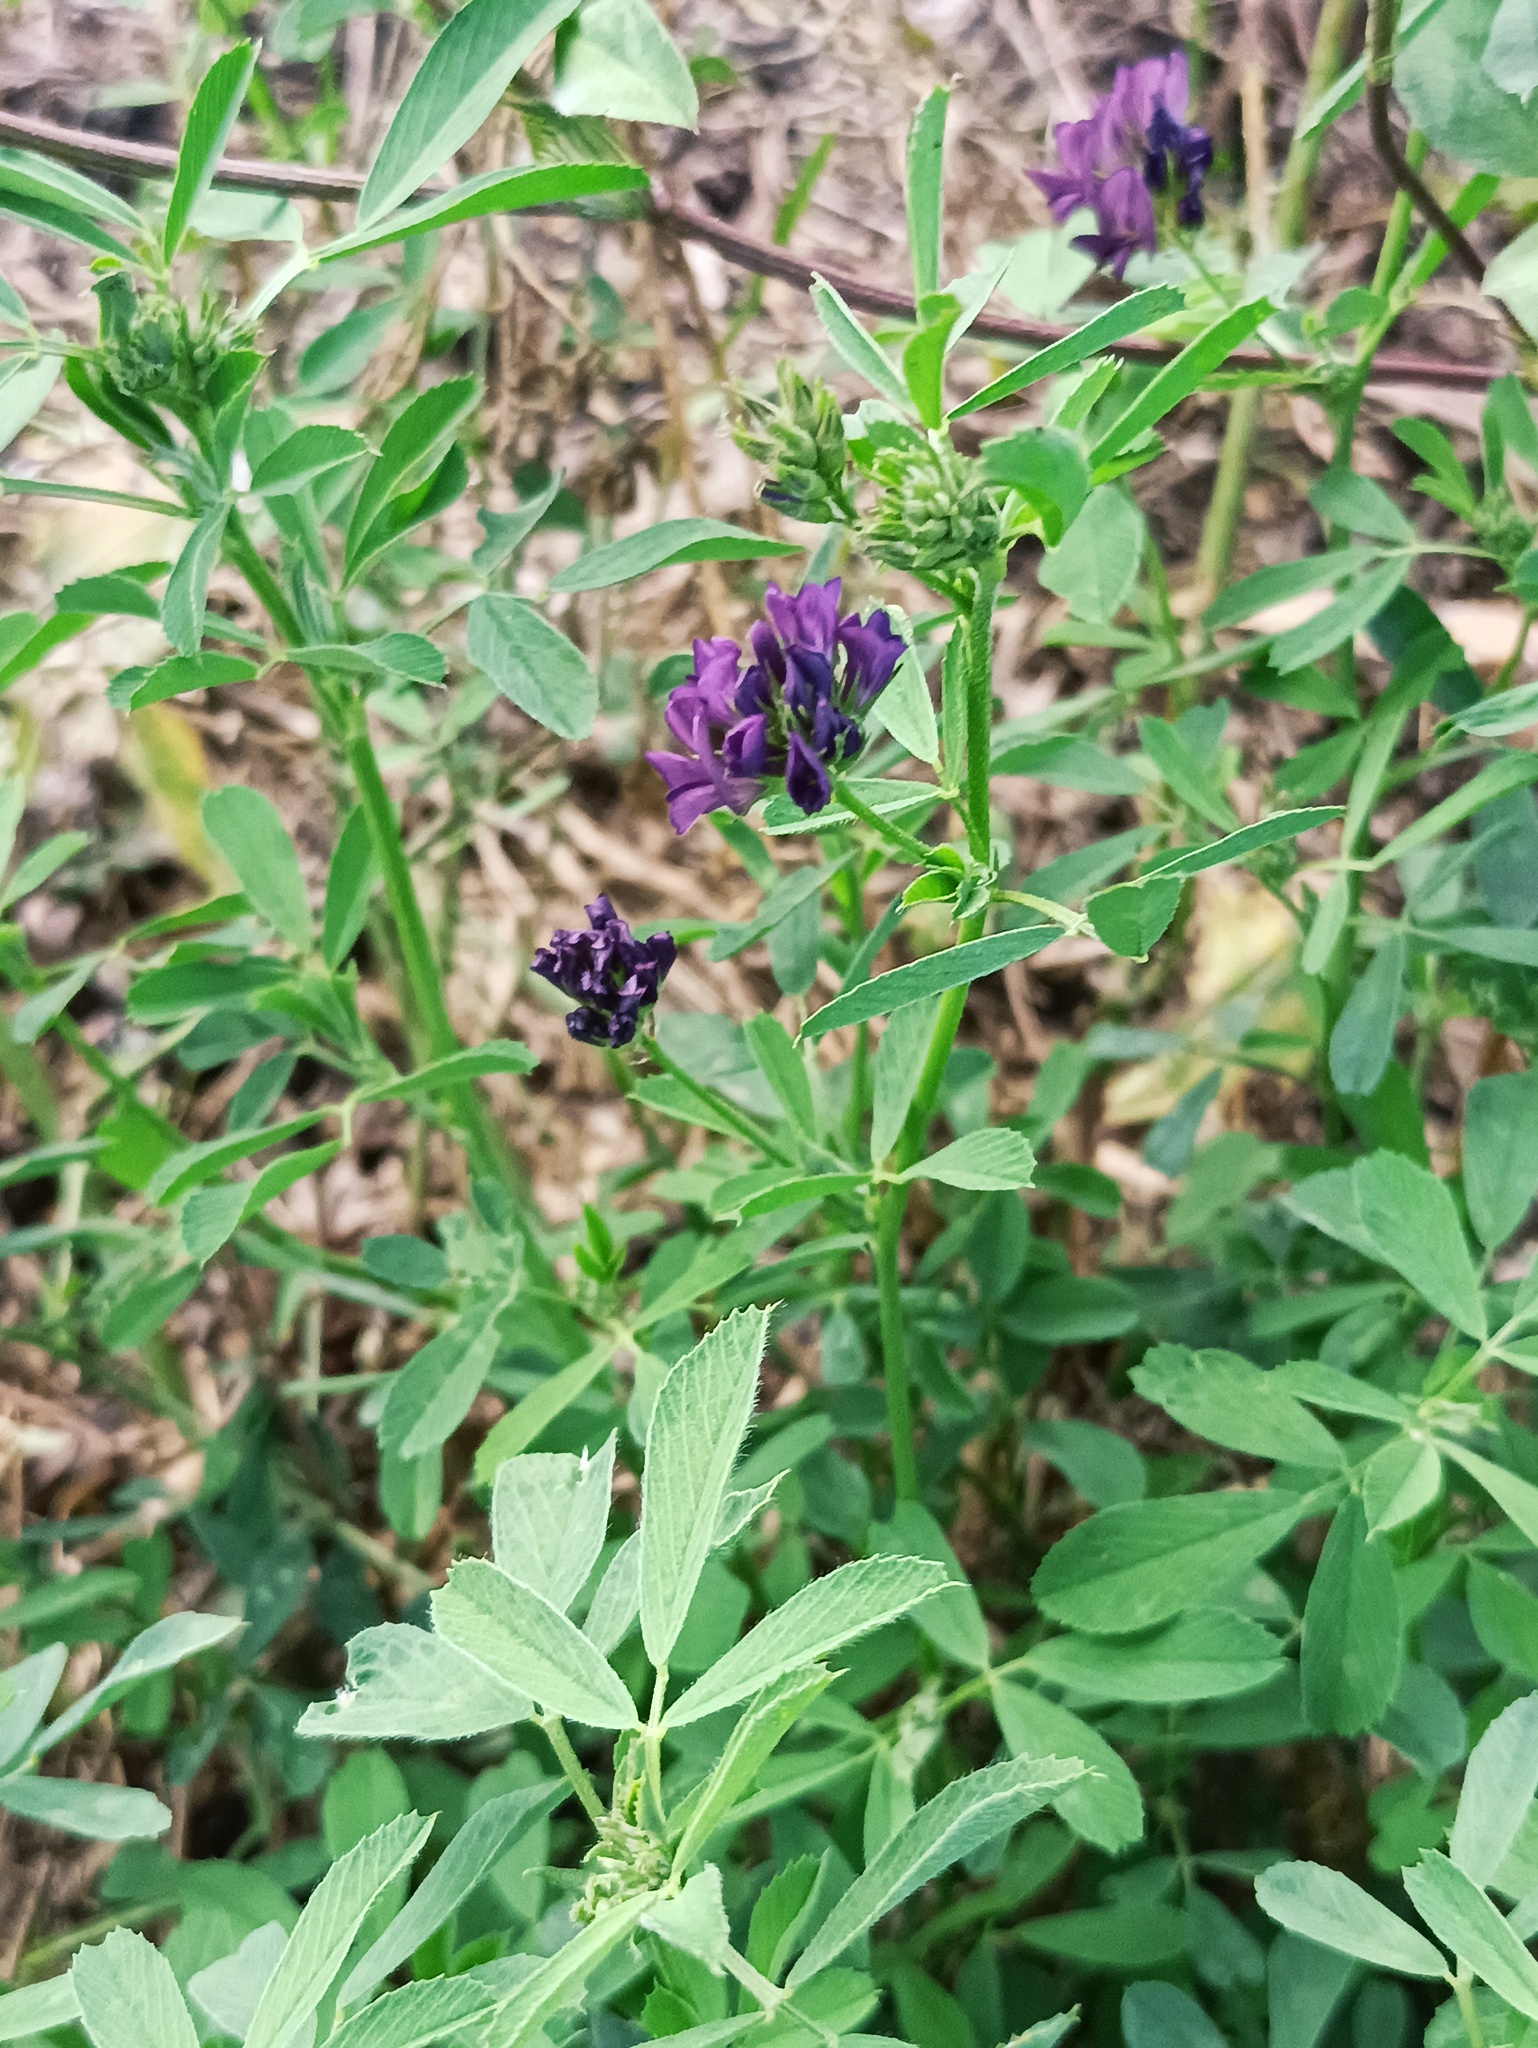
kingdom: Plantae
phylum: Tracheophyta
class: Magnoliopsida
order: Fabales
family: Fabaceae
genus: Medicago
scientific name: Medicago sativa
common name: Alfalfa
